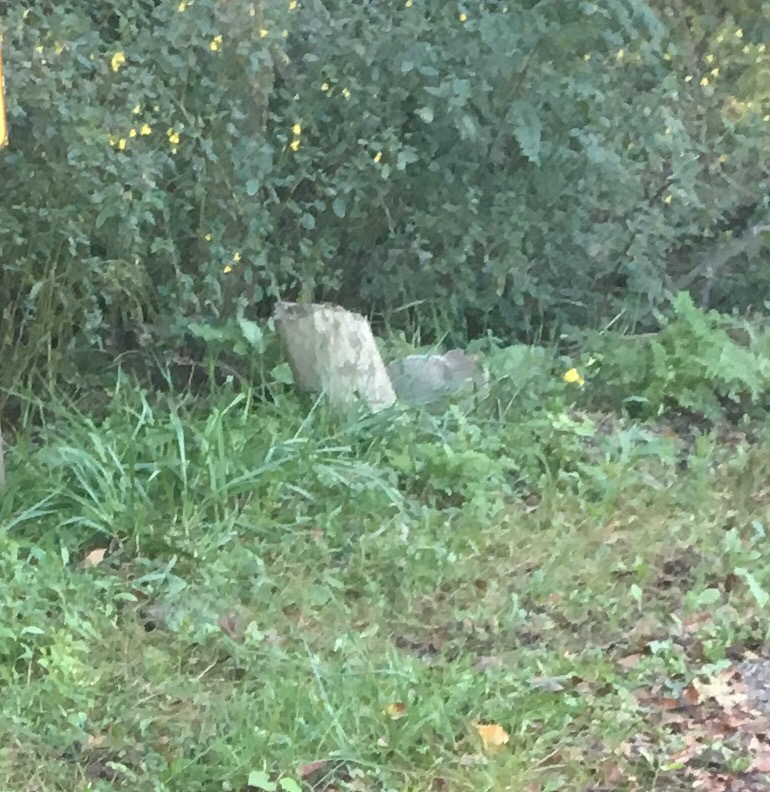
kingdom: Animalia
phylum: Chordata
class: Mammalia
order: Rodentia
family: Sciuridae
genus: Marmota
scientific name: Marmota monax
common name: Groundhog
